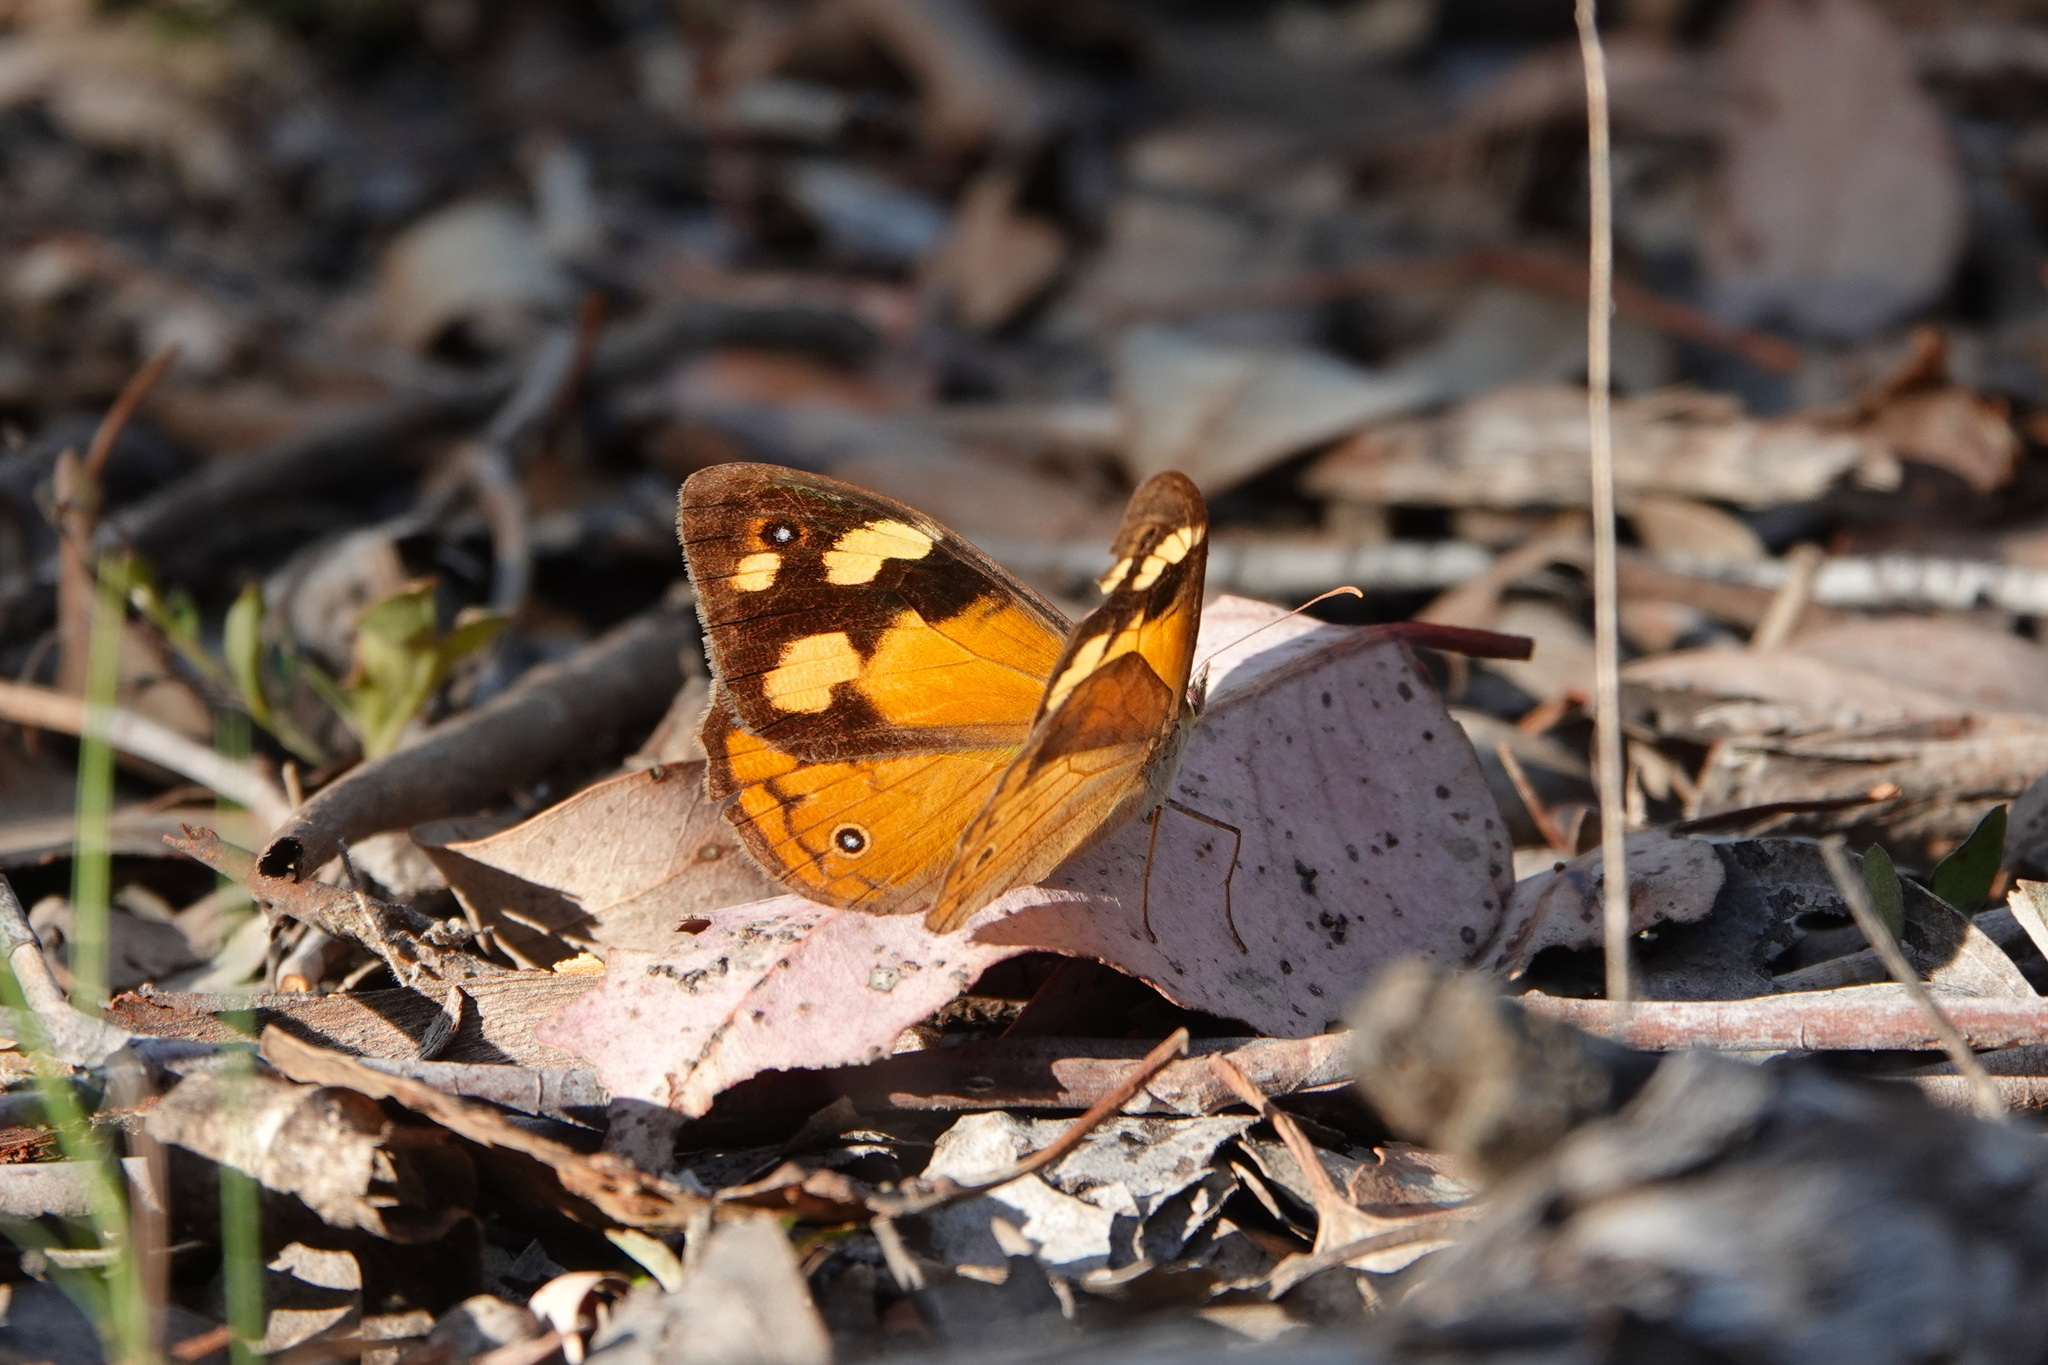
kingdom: Animalia
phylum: Arthropoda
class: Insecta
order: Lepidoptera
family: Nymphalidae
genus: Heteronympha
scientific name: Heteronympha merope
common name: Common brown
